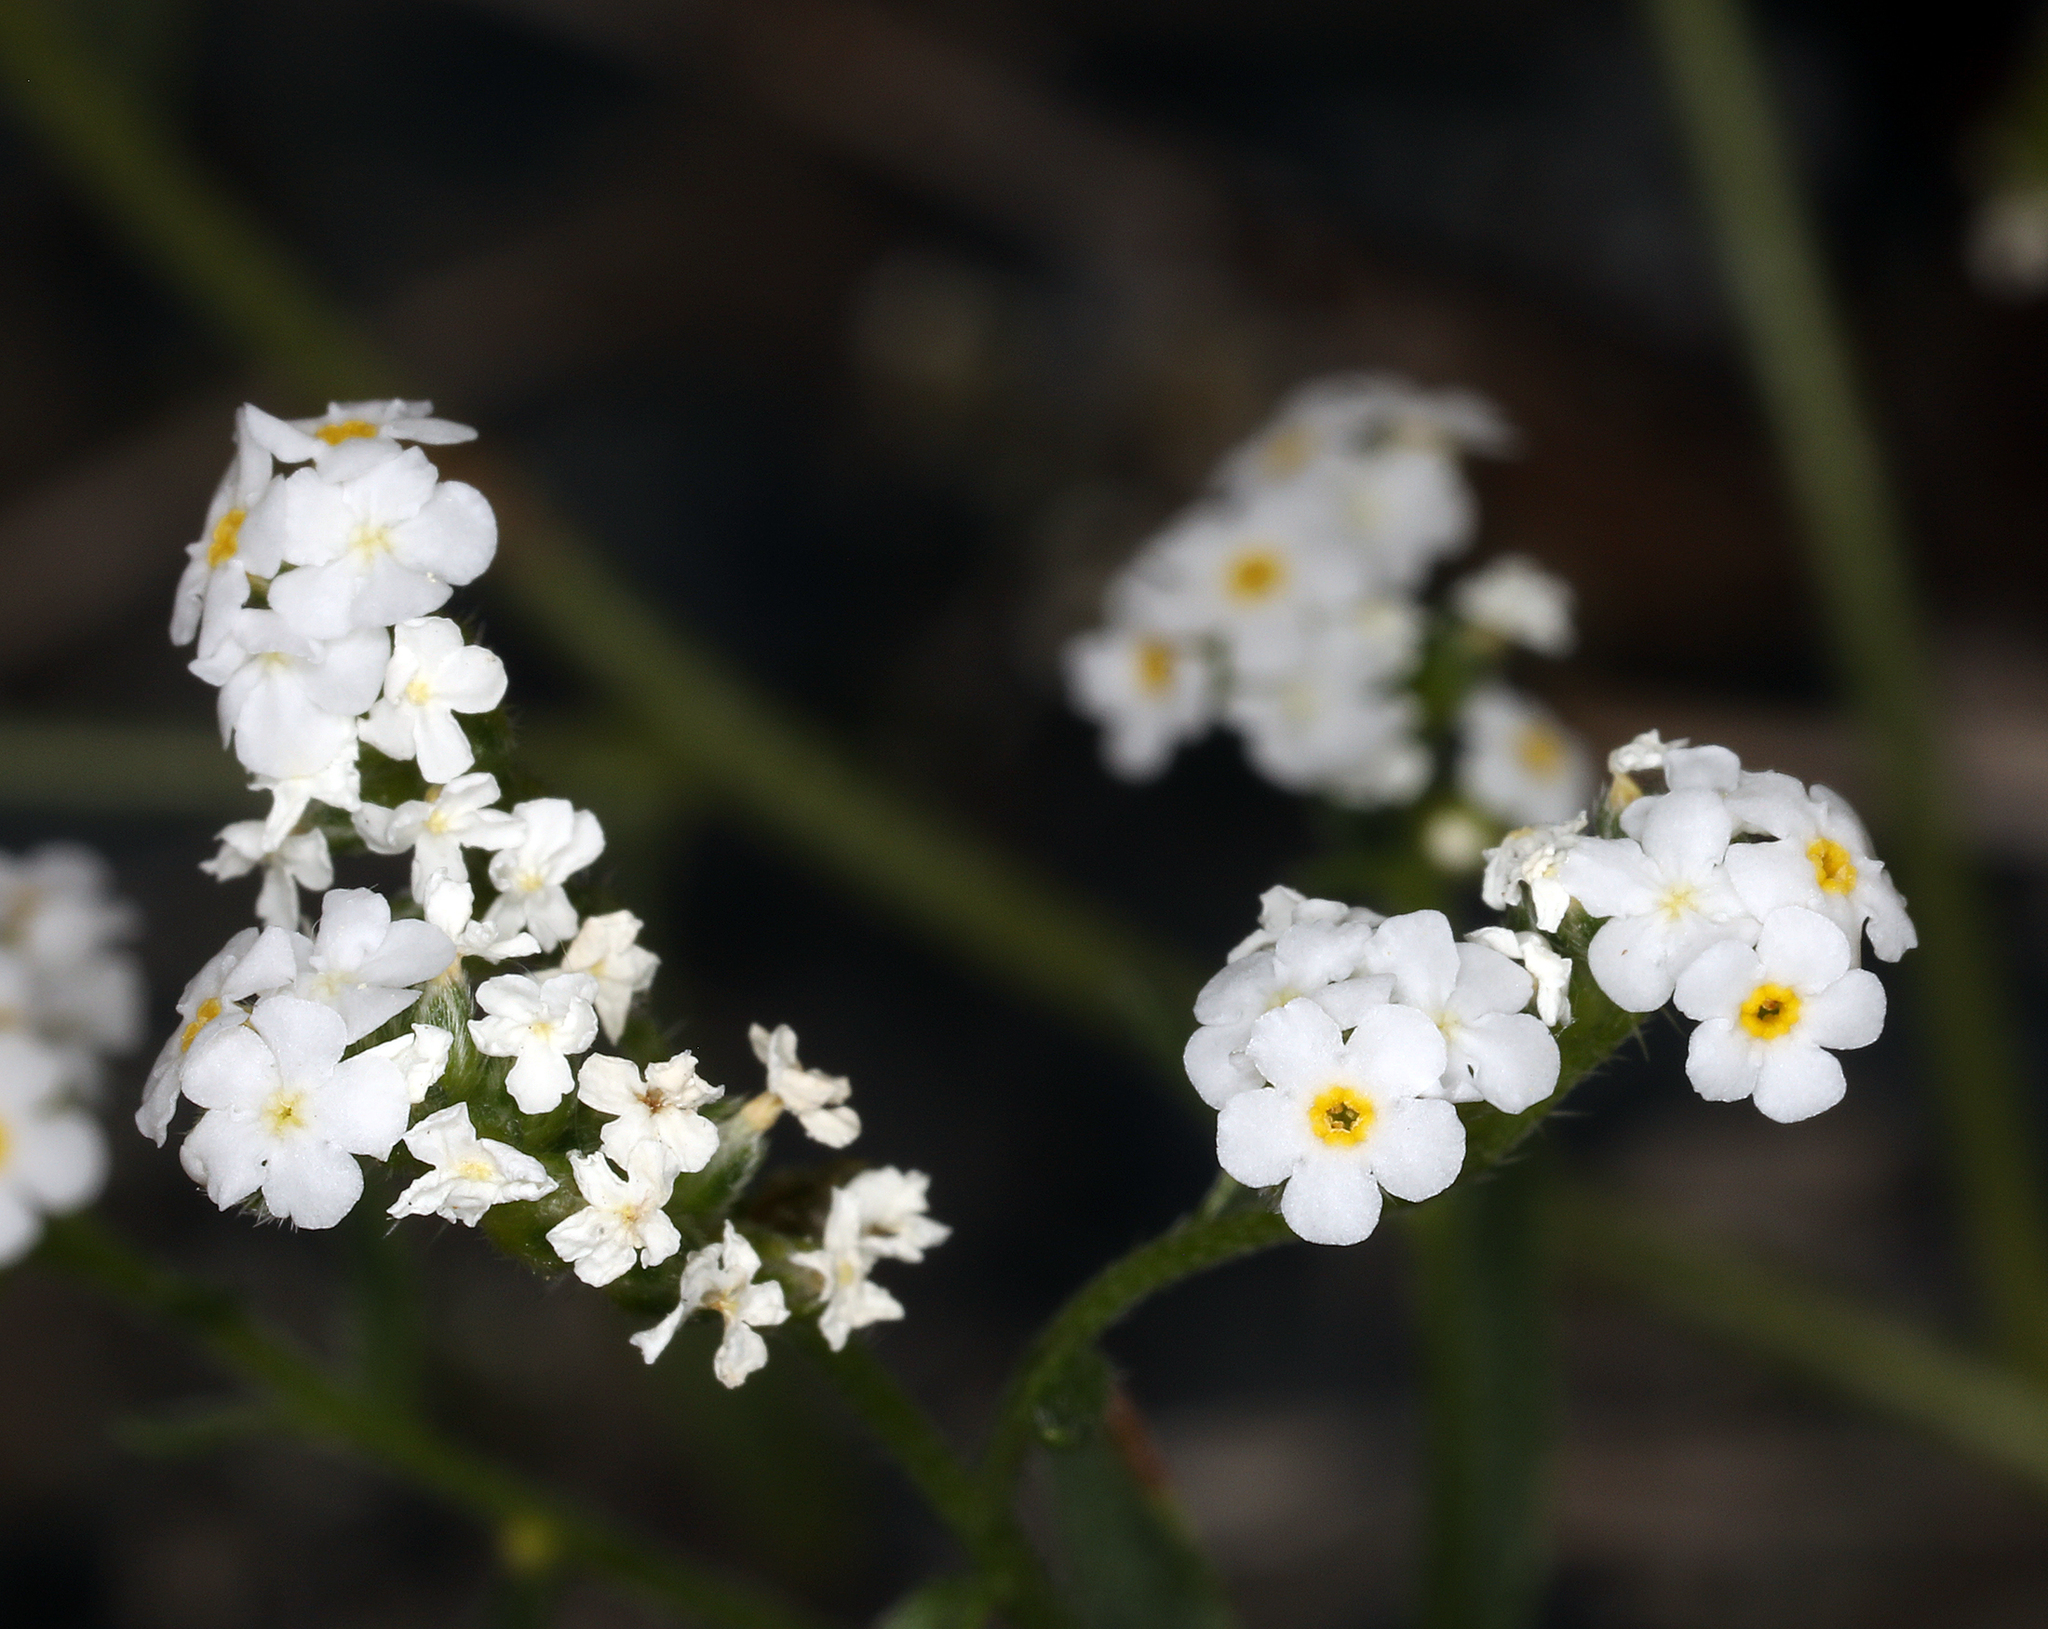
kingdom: Plantae
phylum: Tracheophyta
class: Magnoliopsida
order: Boraginales
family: Boraginaceae
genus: Cryptantha
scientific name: Cryptantha utahensis
